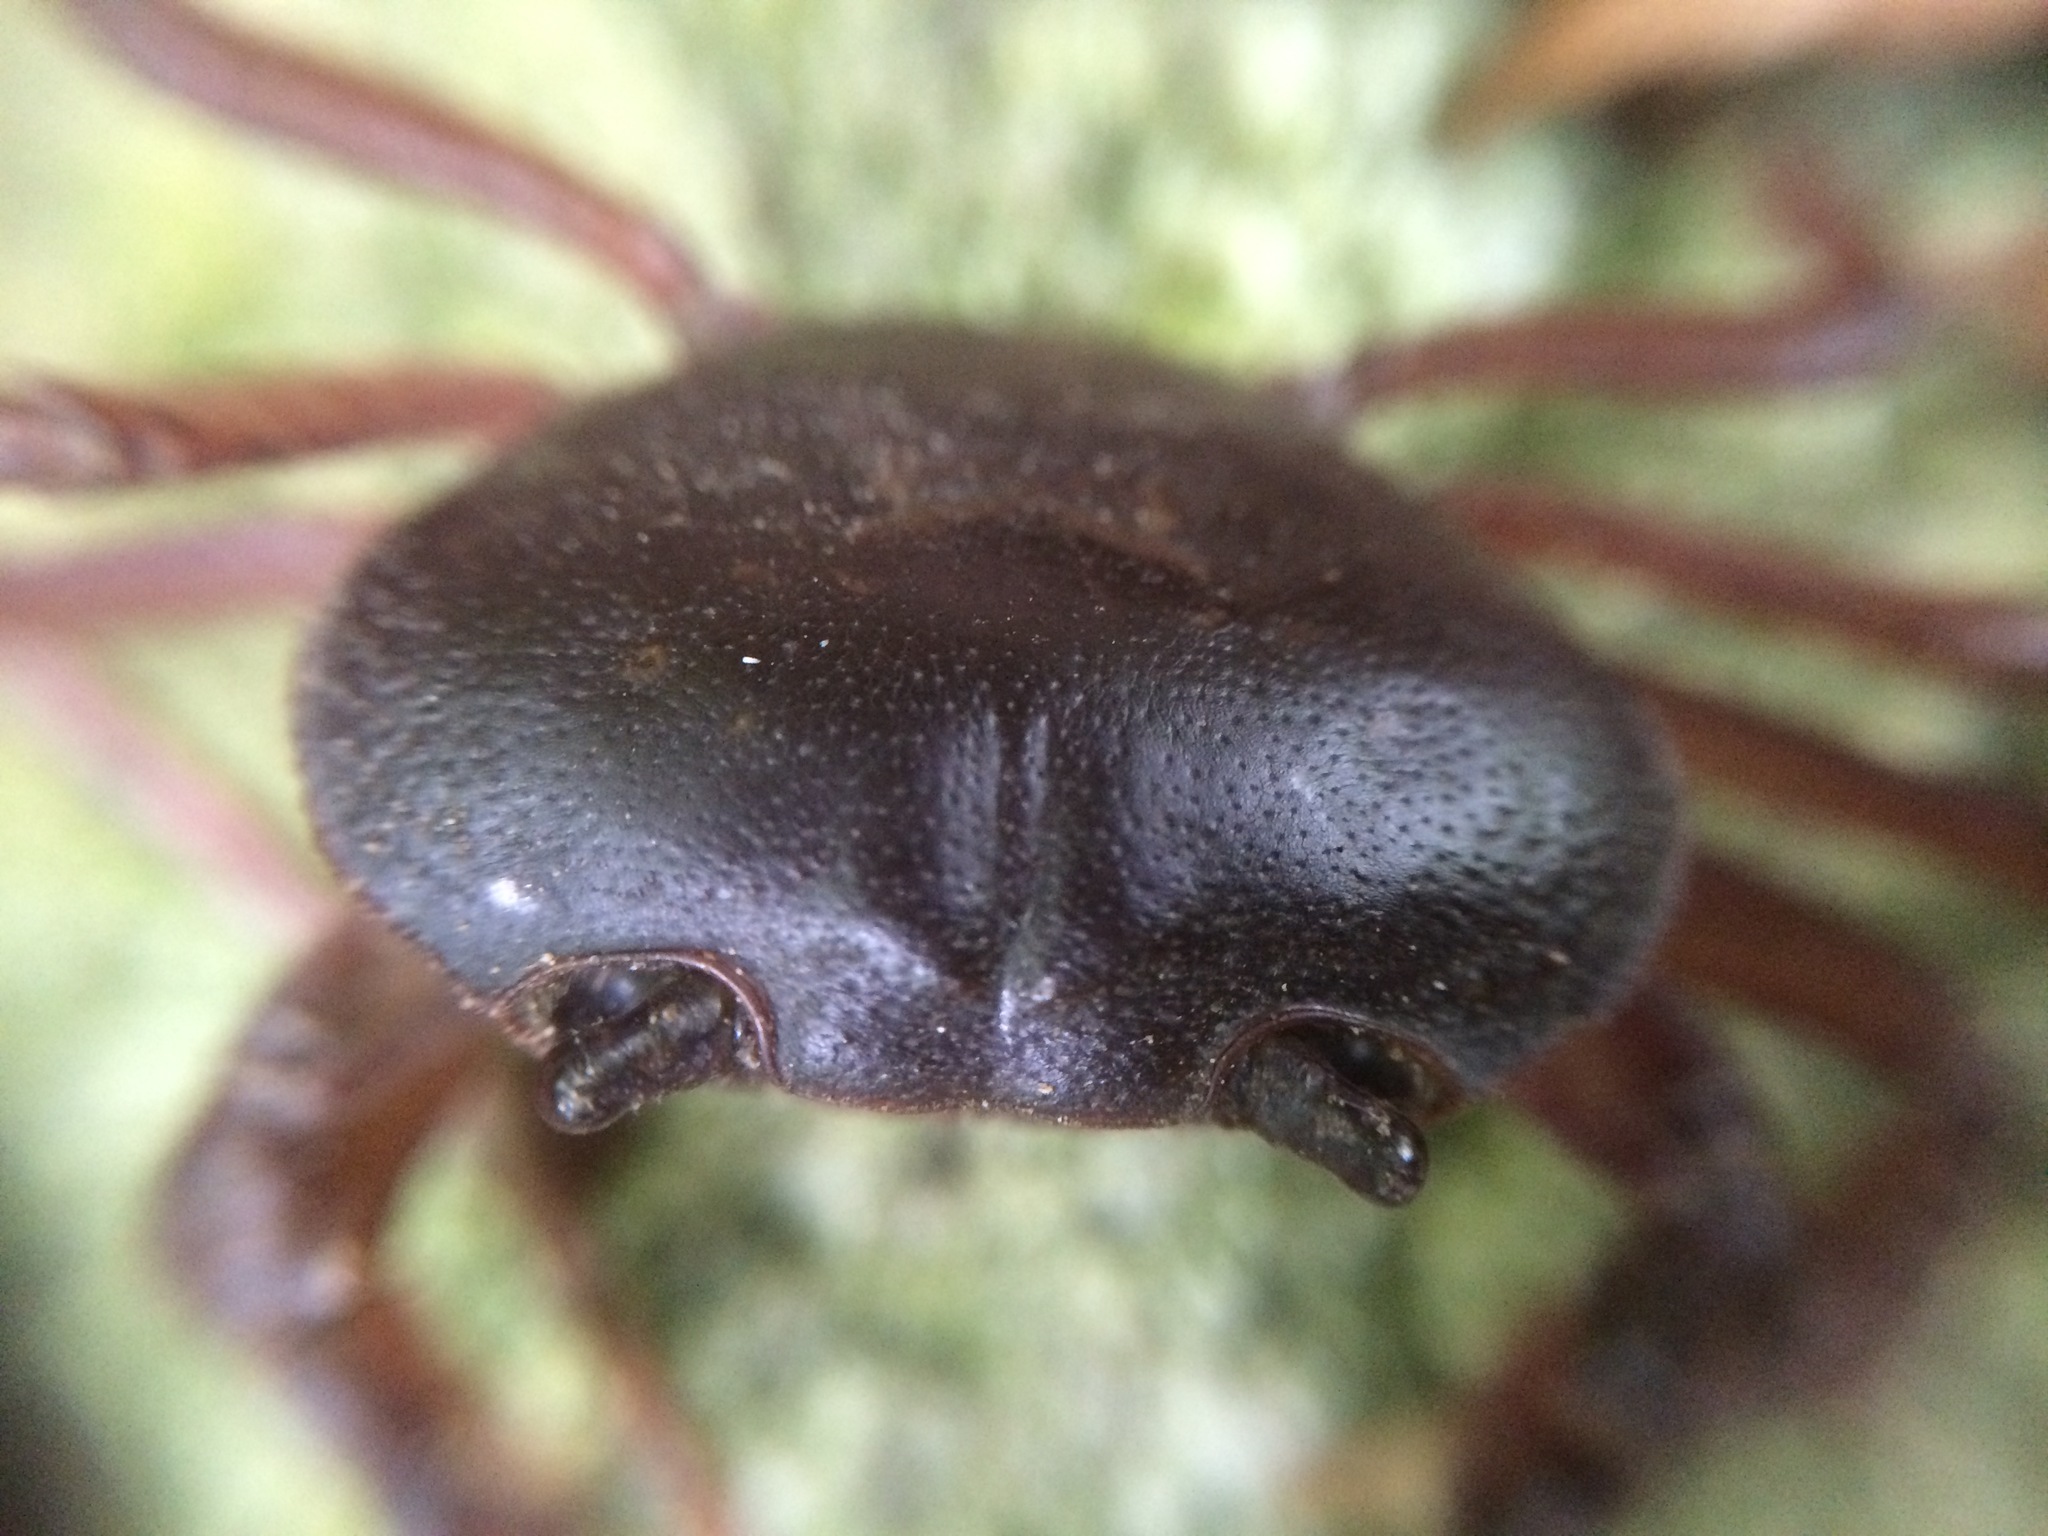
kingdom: Animalia
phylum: Arthropoda
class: Malacostraca
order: Decapoda
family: Potamidae
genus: Geothelphusa
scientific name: Geothelphusa dehaani
